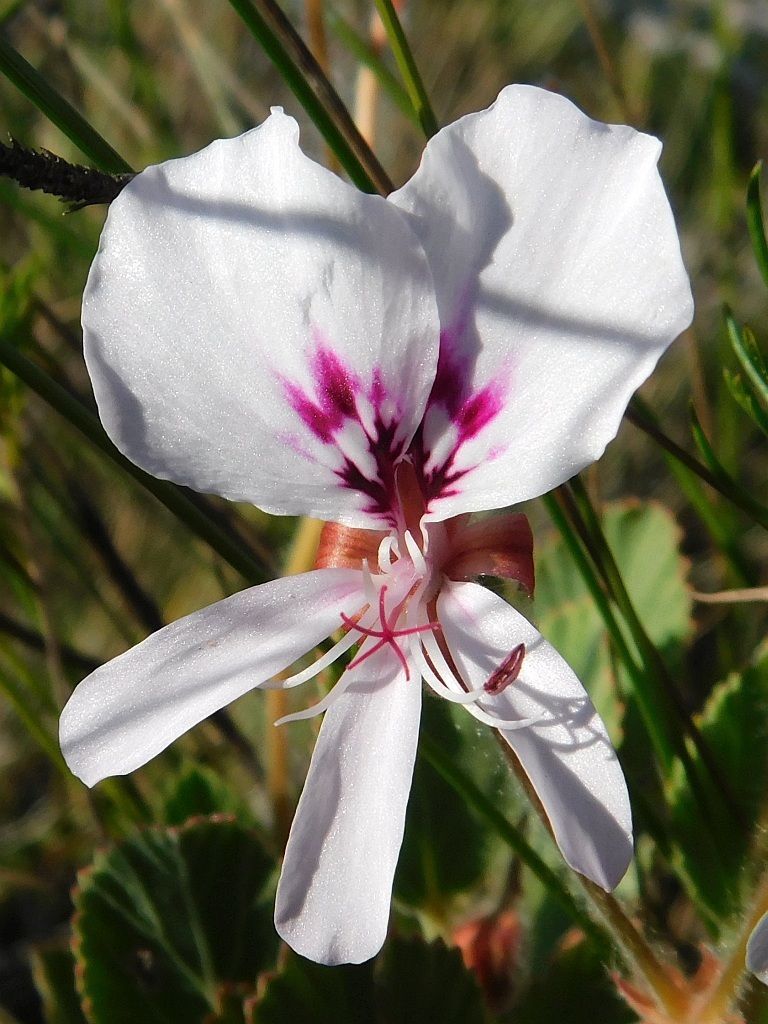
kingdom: Plantae
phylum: Tracheophyta
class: Magnoliopsida
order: Geraniales
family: Geraniaceae
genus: Pelargonium
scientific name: Pelargonium ovale
